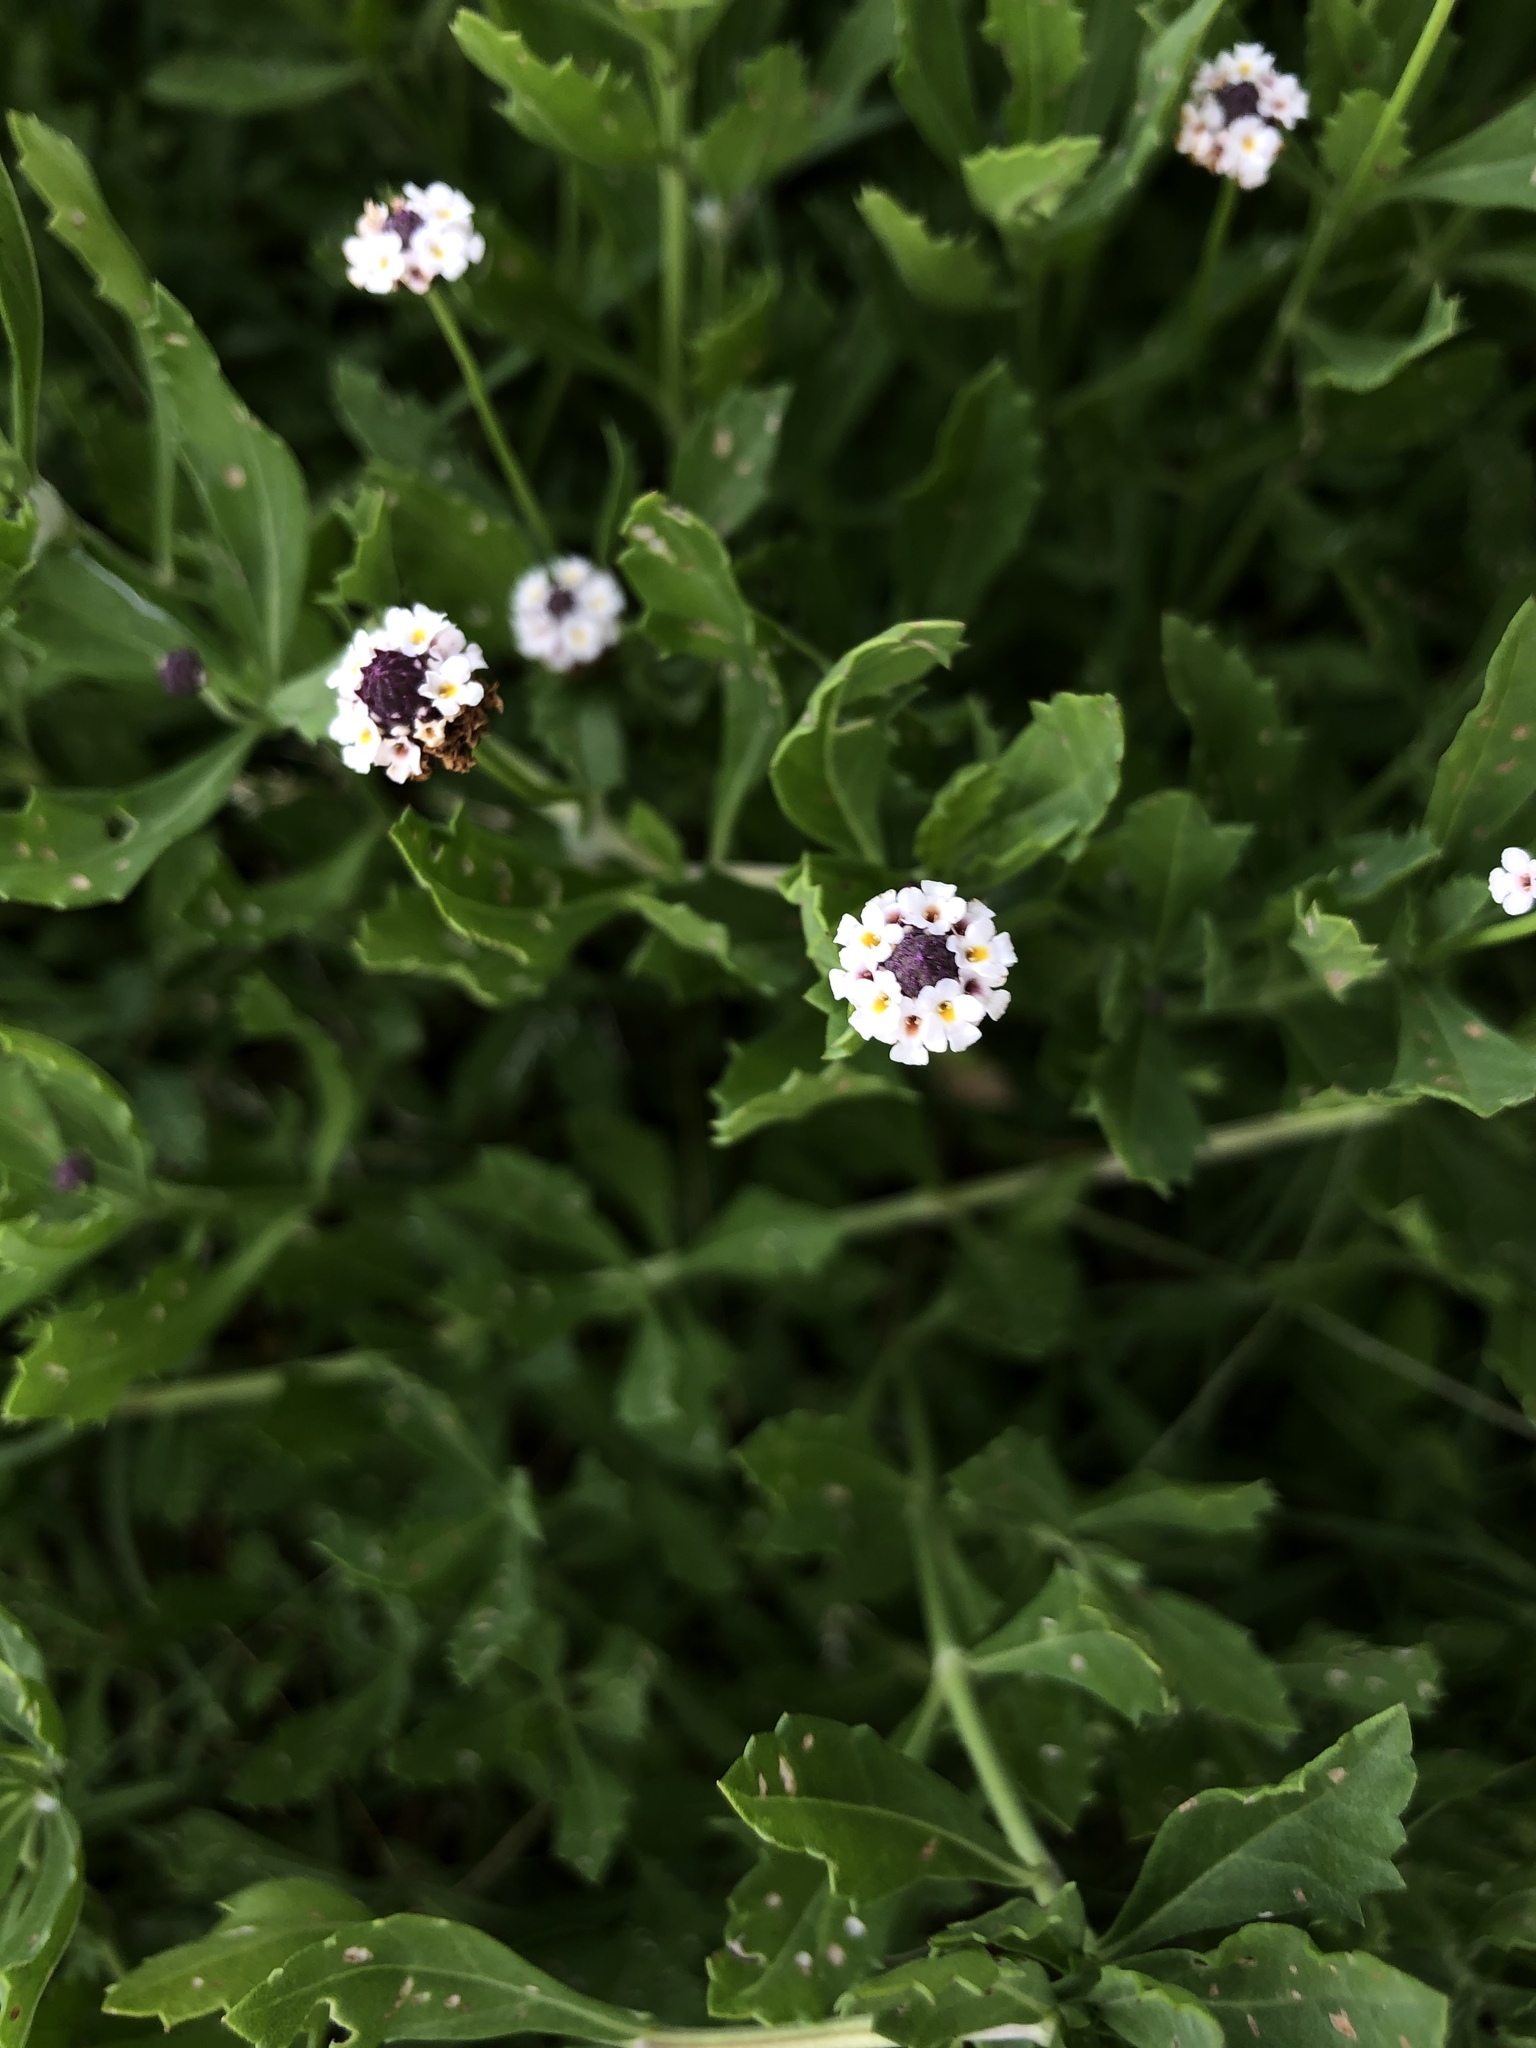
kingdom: Plantae
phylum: Tracheophyta
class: Magnoliopsida
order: Lamiales
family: Verbenaceae
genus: Phyla
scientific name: Phyla nodiflora
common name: Frogfruit
